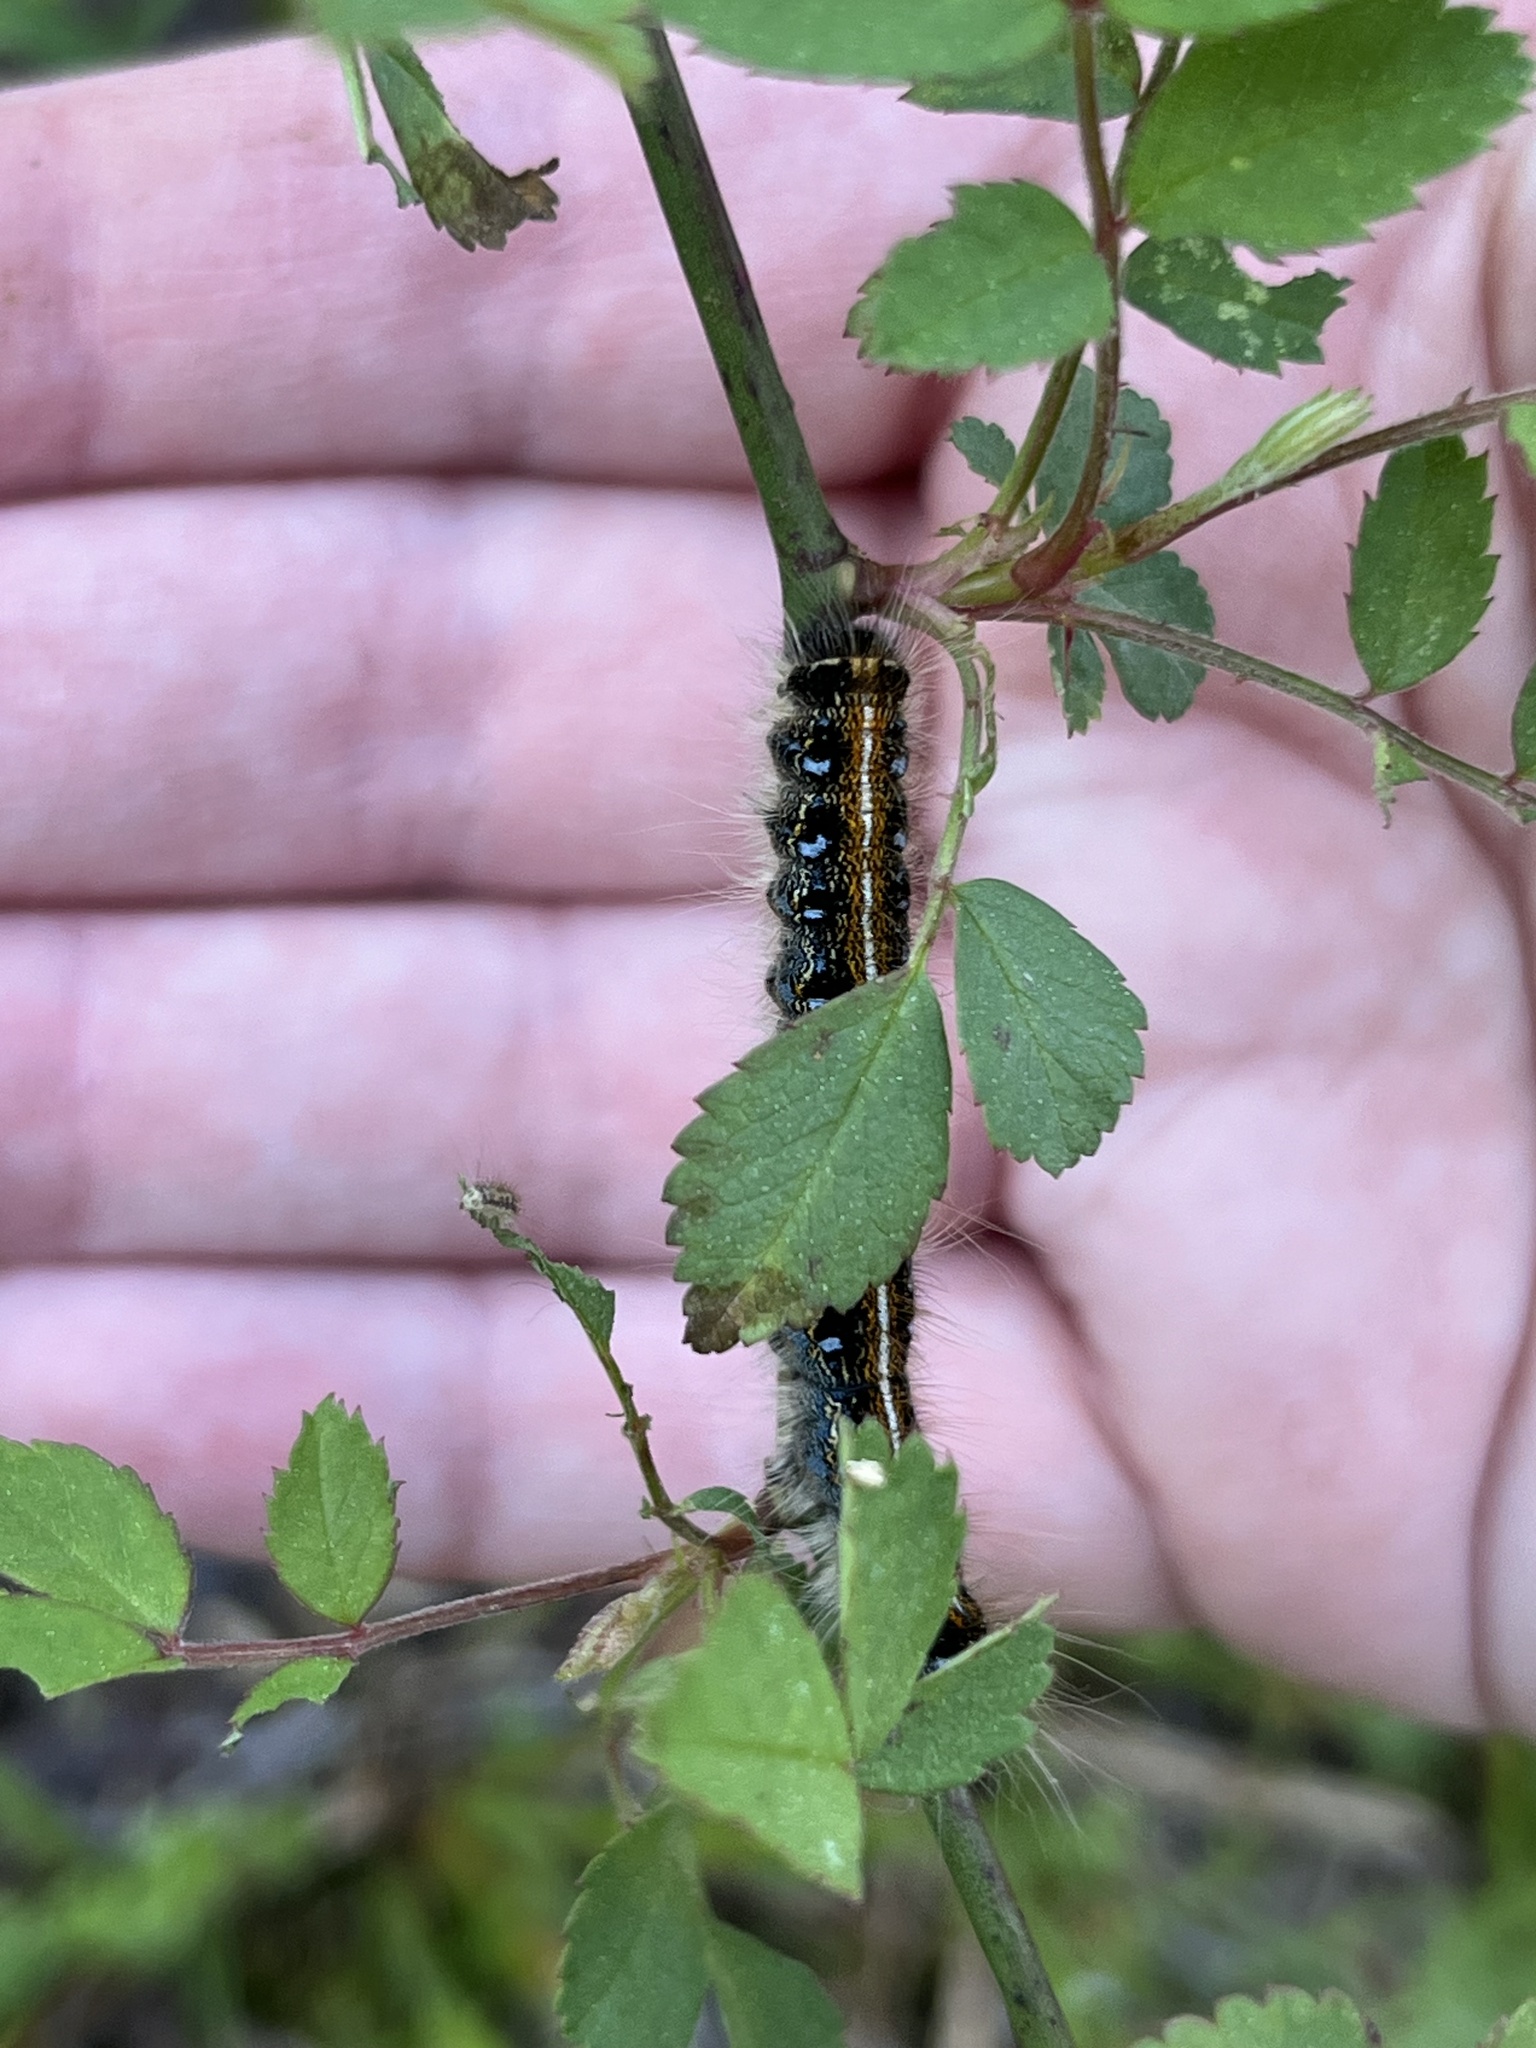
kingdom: Animalia
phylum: Arthropoda
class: Insecta
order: Lepidoptera
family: Lasiocampidae
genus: Malacosoma
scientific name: Malacosoma americana
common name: Eastern tent caterpillar moth
